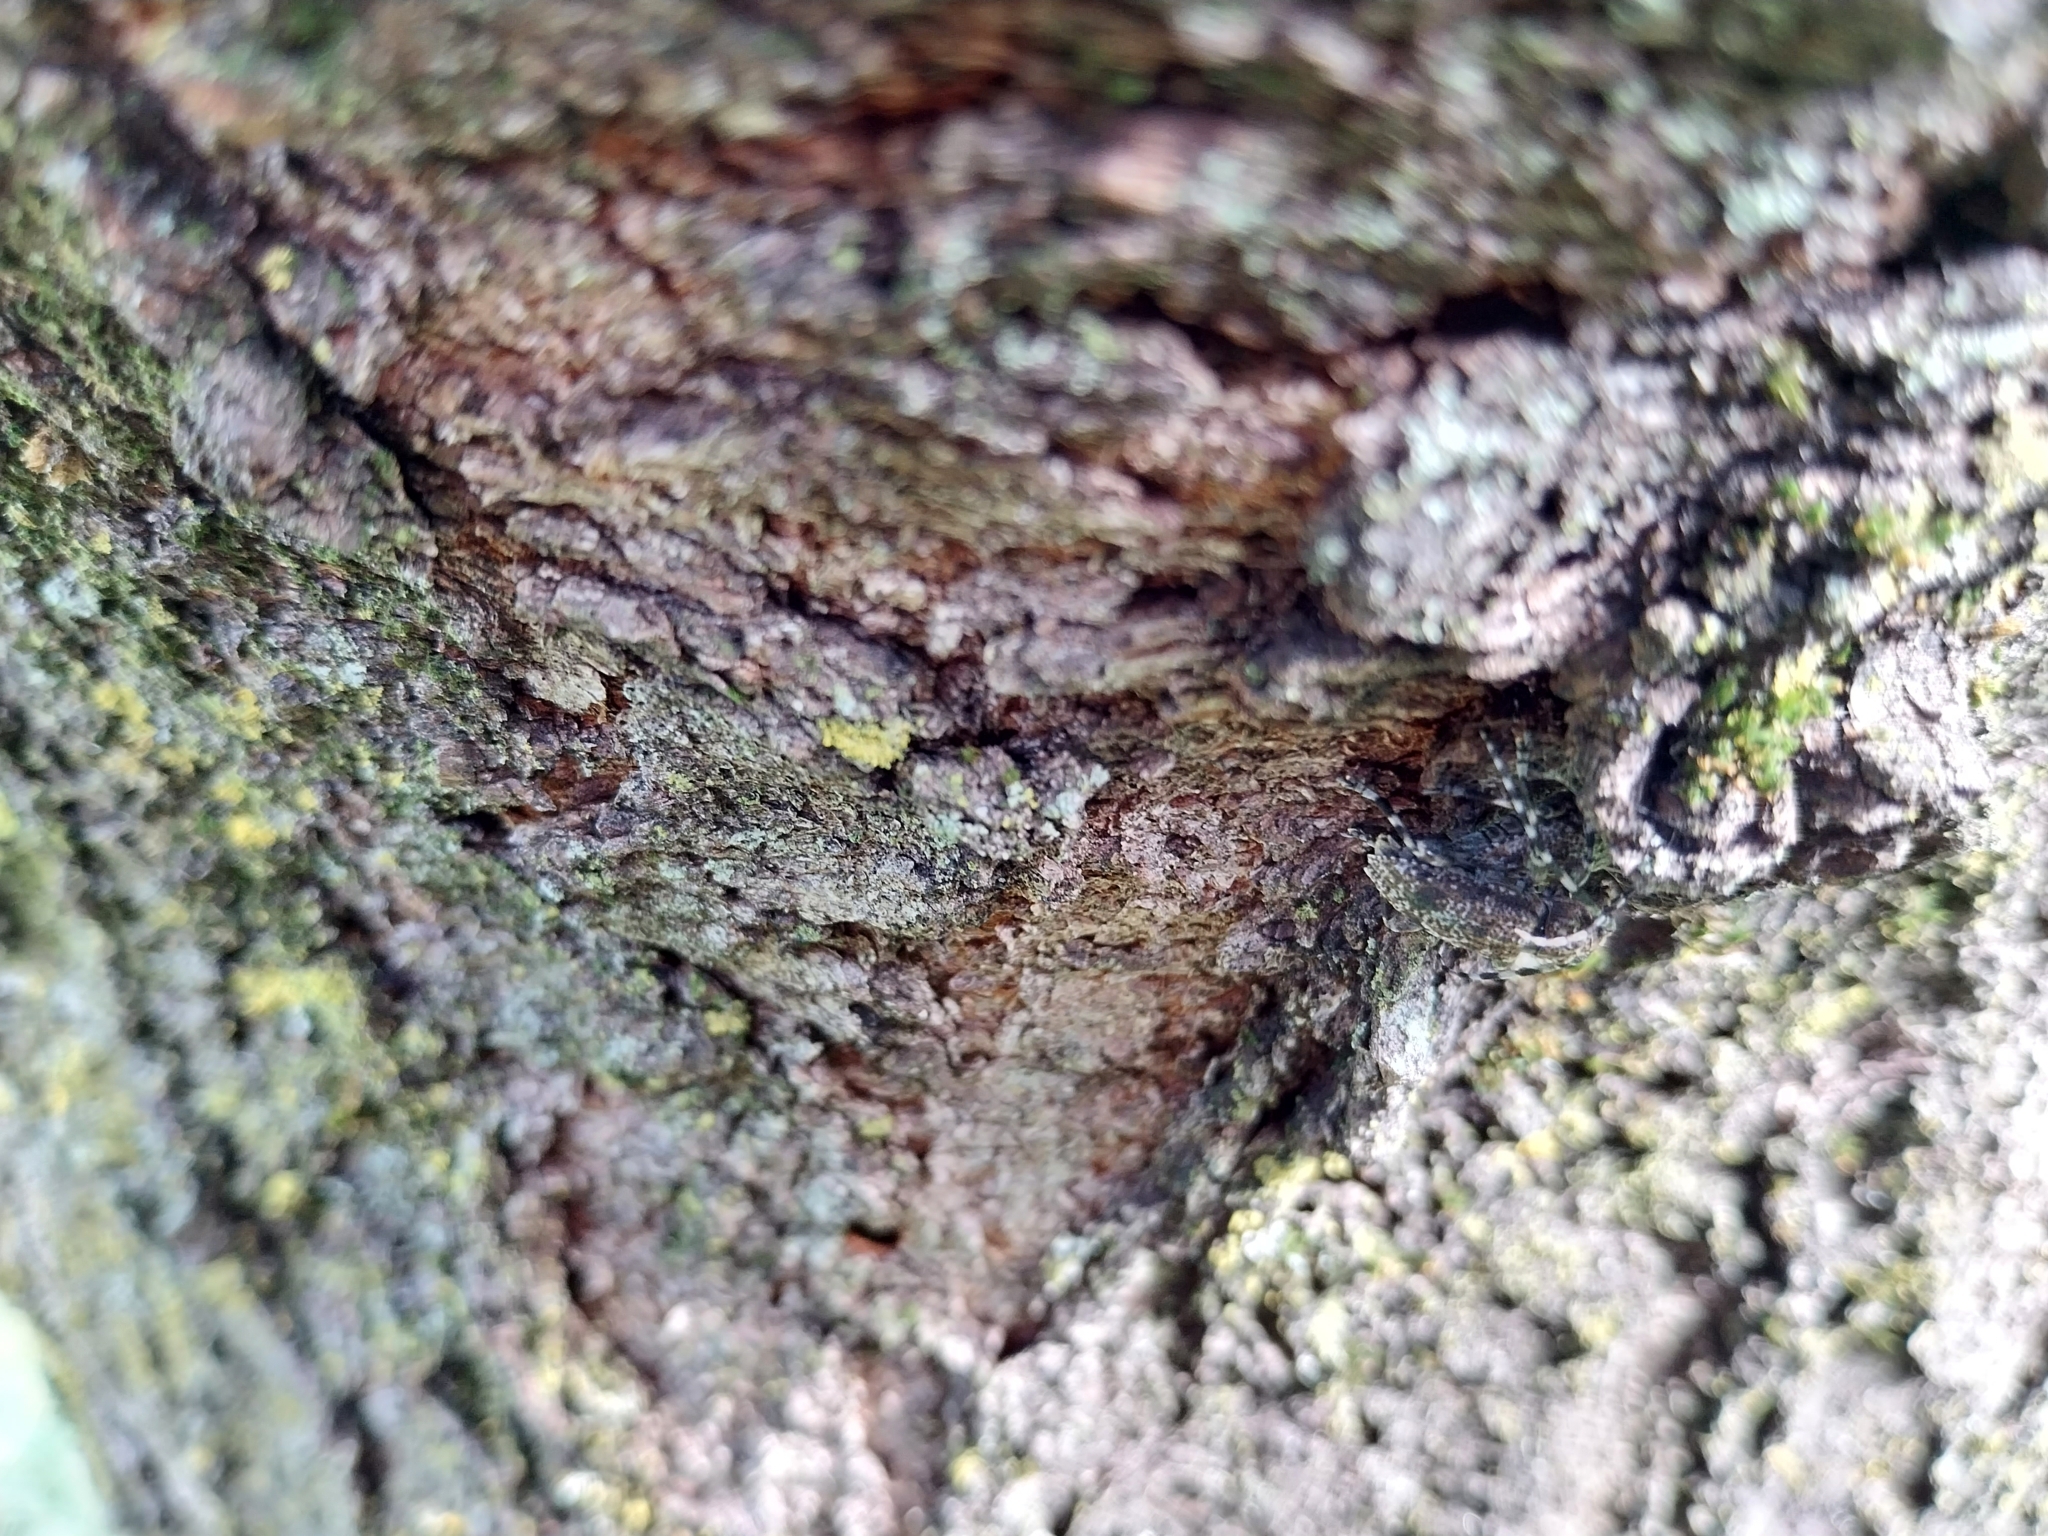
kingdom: Animalia
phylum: Arthropoda
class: Insecta
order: Coleoptera
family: Cerambycidae
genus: Aegomorphus
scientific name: Aegomorphus clavipes
